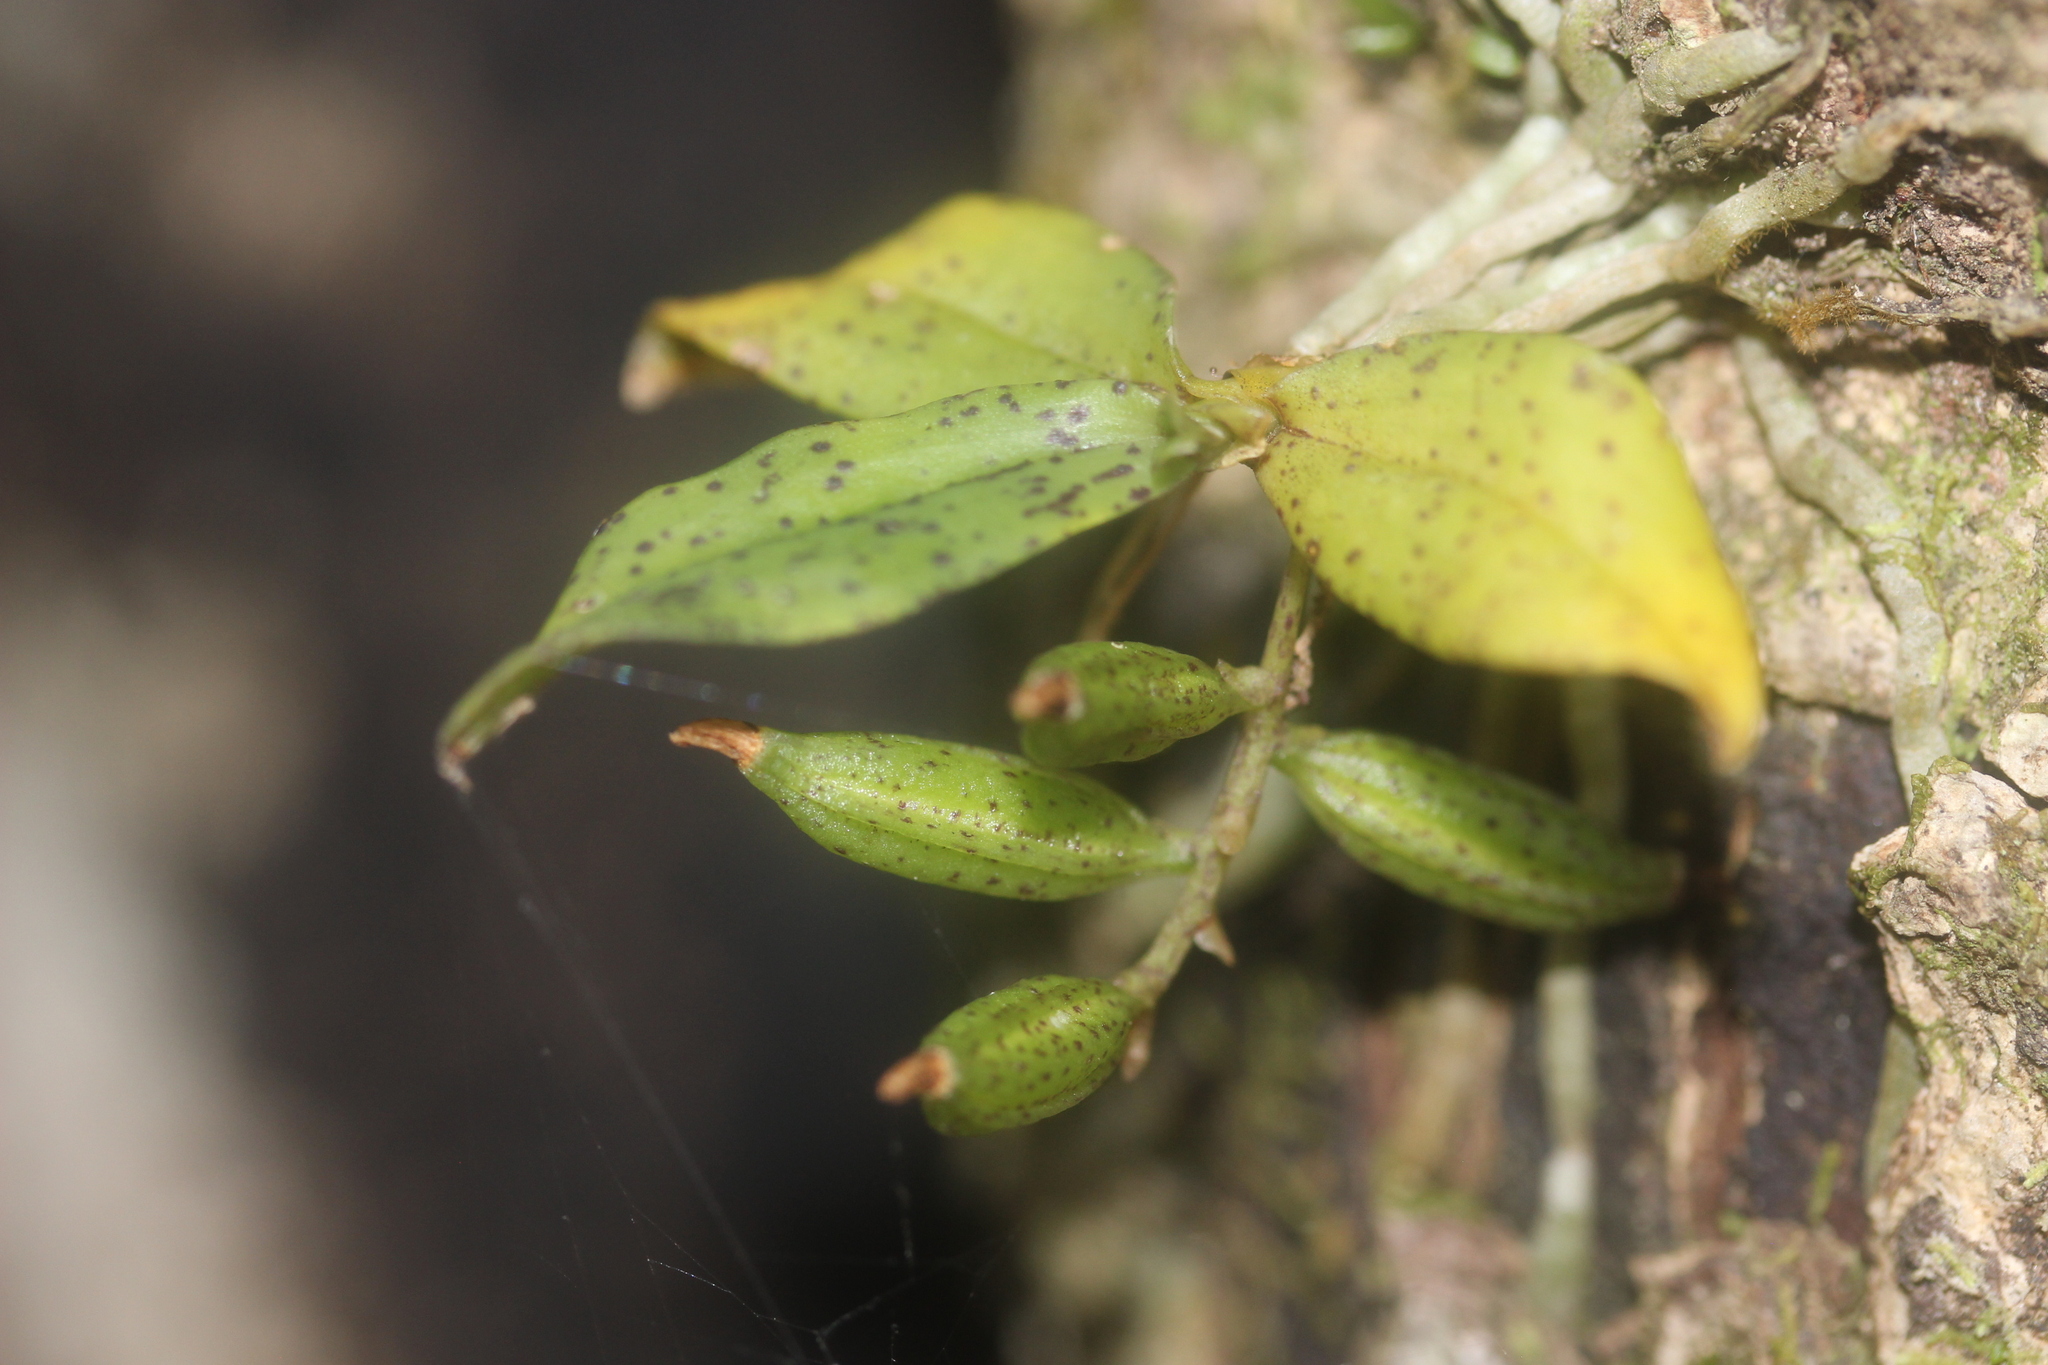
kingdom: Plantae
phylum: Tracheophyta
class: Liliopsida
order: Asparagales
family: Orchidaceae
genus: Drymoanthus
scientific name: Drymoanthus flavus
